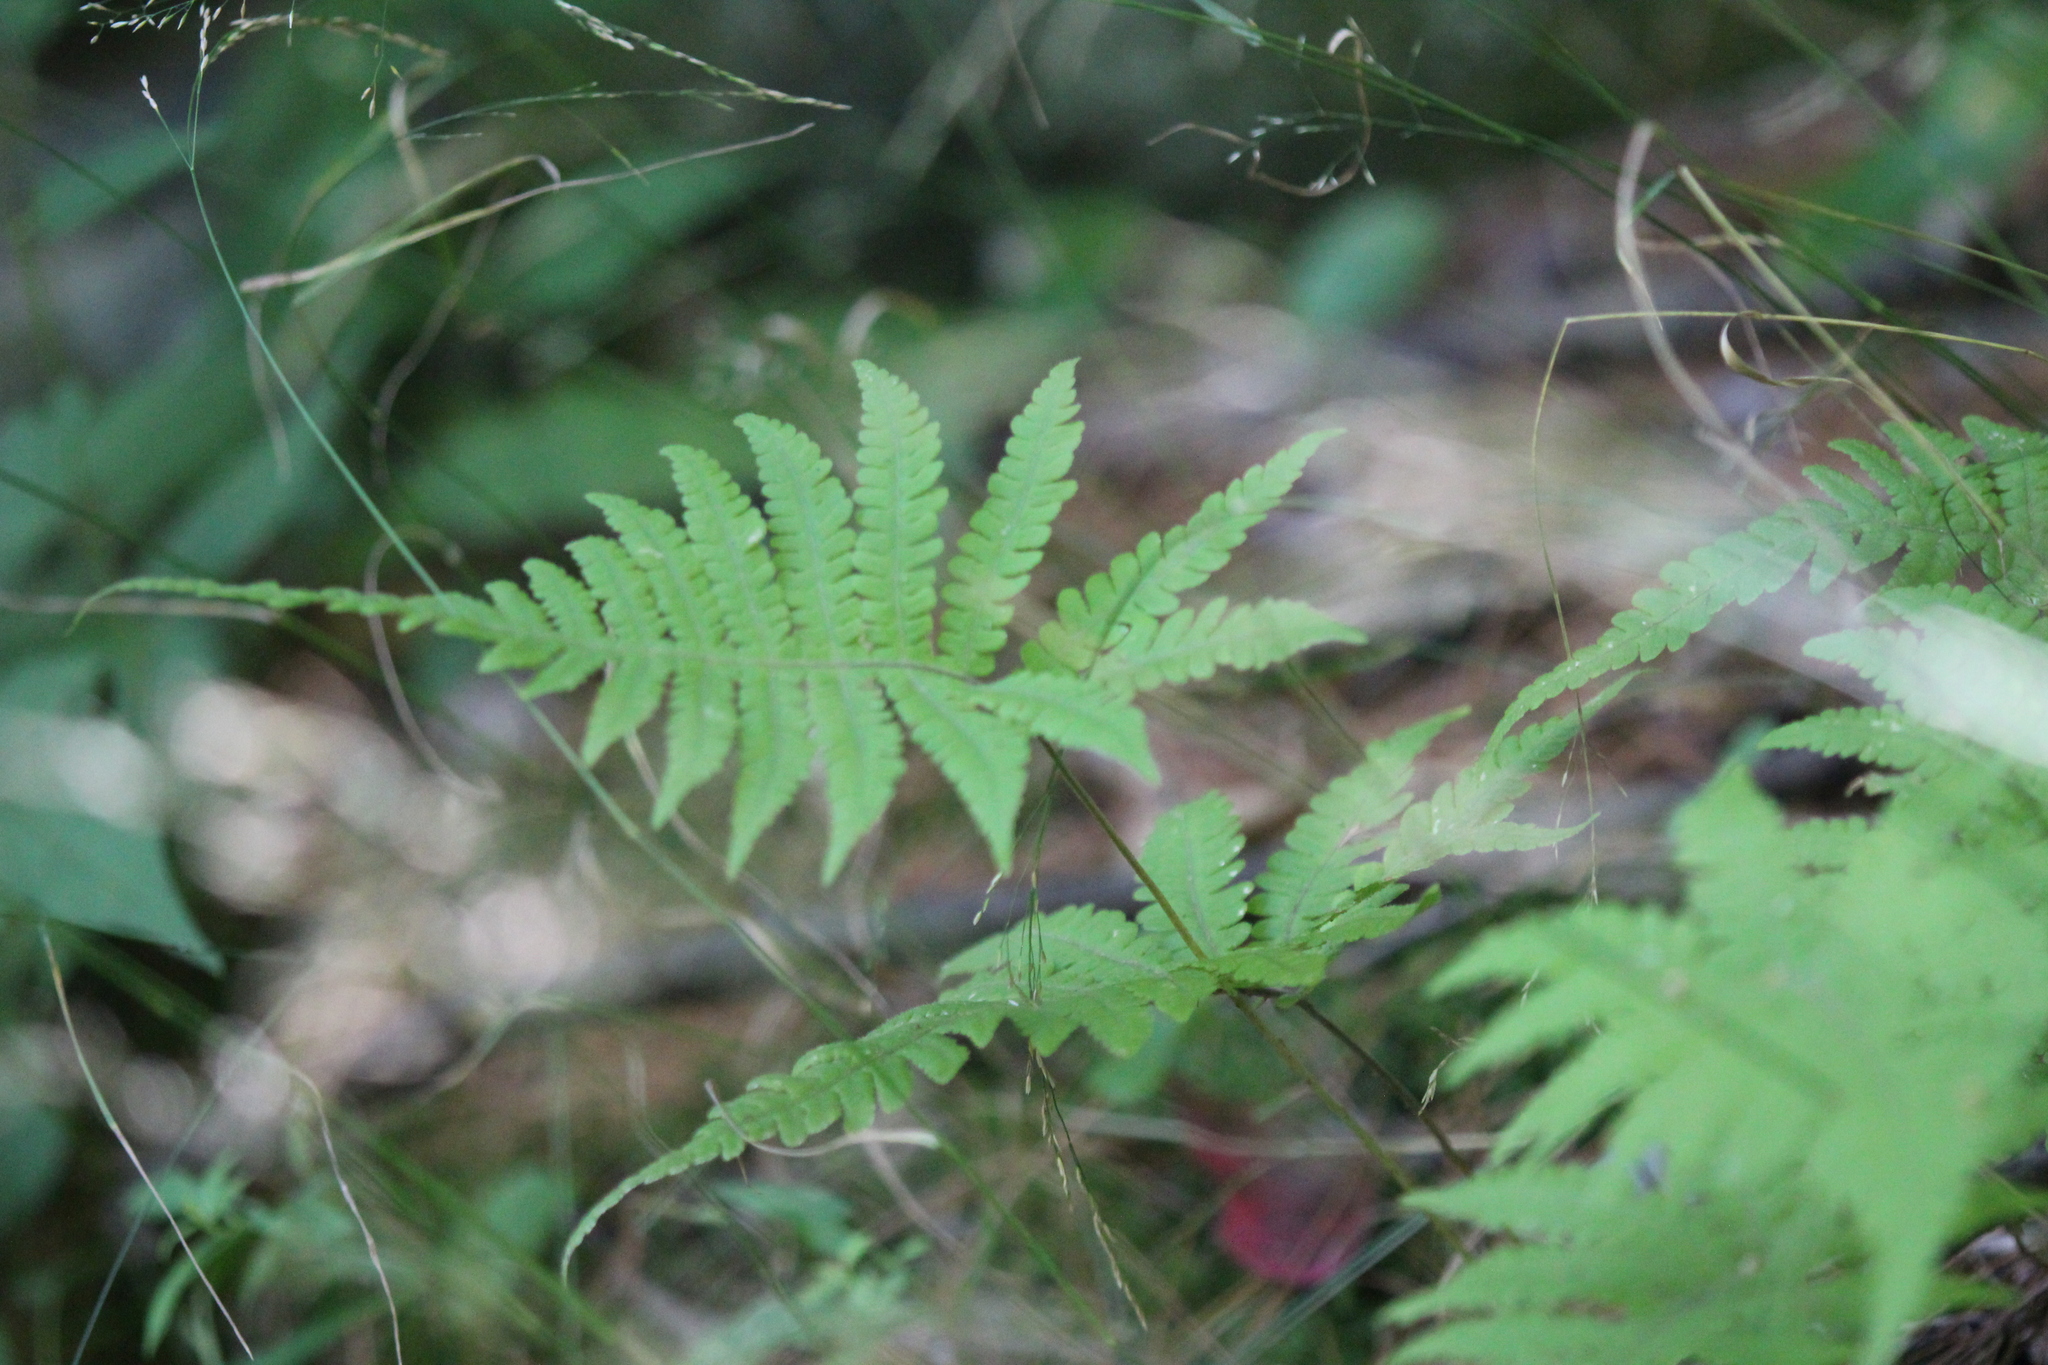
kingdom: Plantae
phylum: Tracheophyta
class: Polypodiopsida
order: Polypodiales
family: Thelypteridaceae
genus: Phegopteris
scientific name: Phegopteris connectilis
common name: Beech fern
